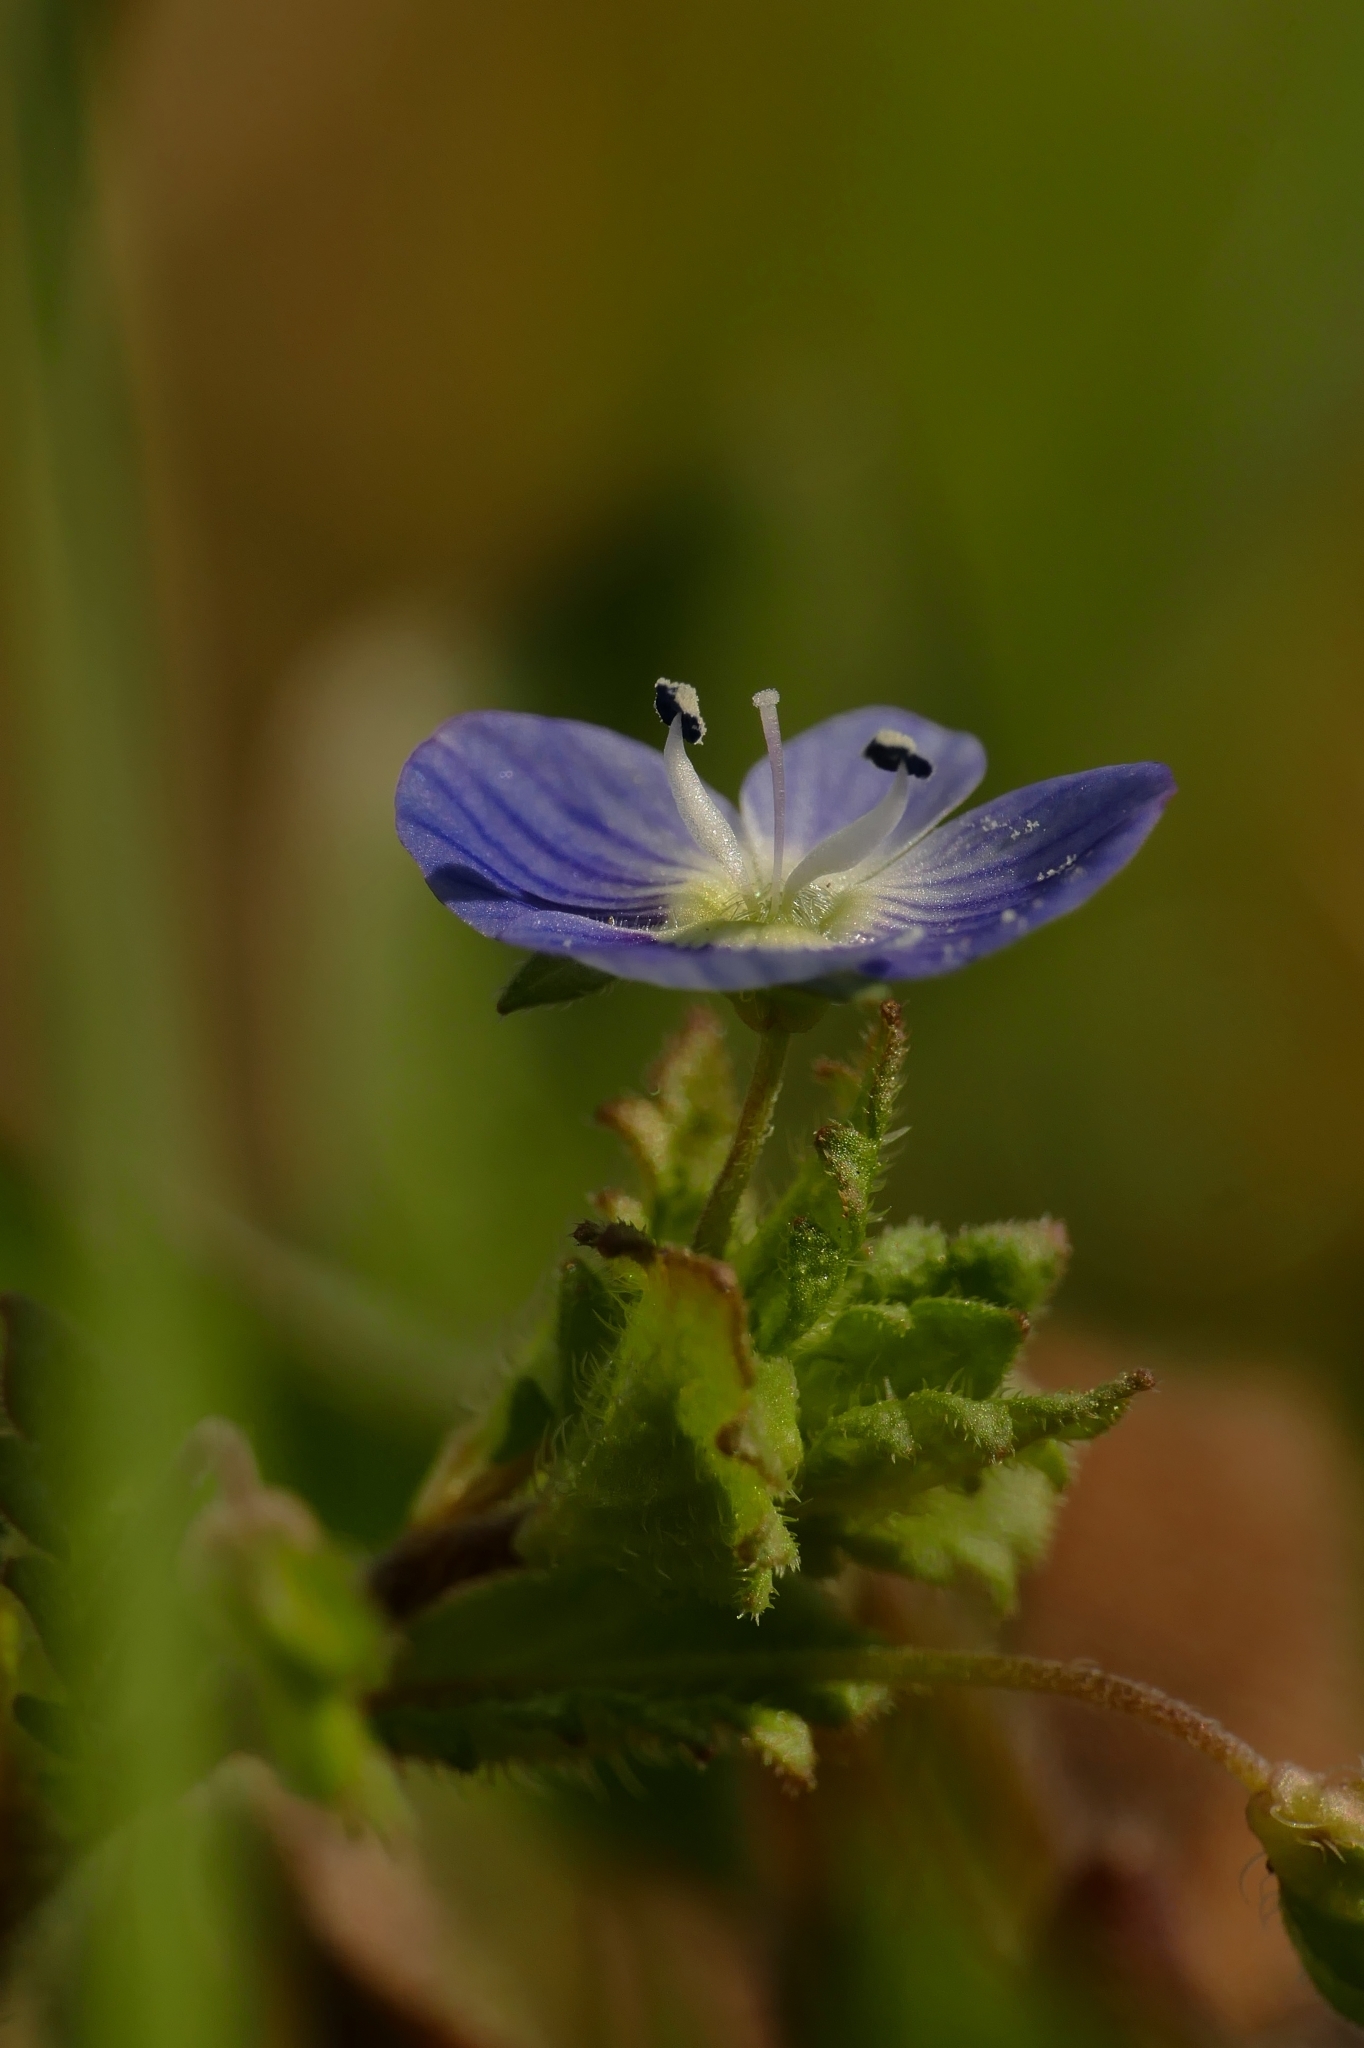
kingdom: Plantae
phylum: Tracheophyta
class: Magnoliopsida
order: Lamiales
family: Plantaginaceae
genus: Veronica
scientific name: Veronica persica
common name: Common field-speedwell
